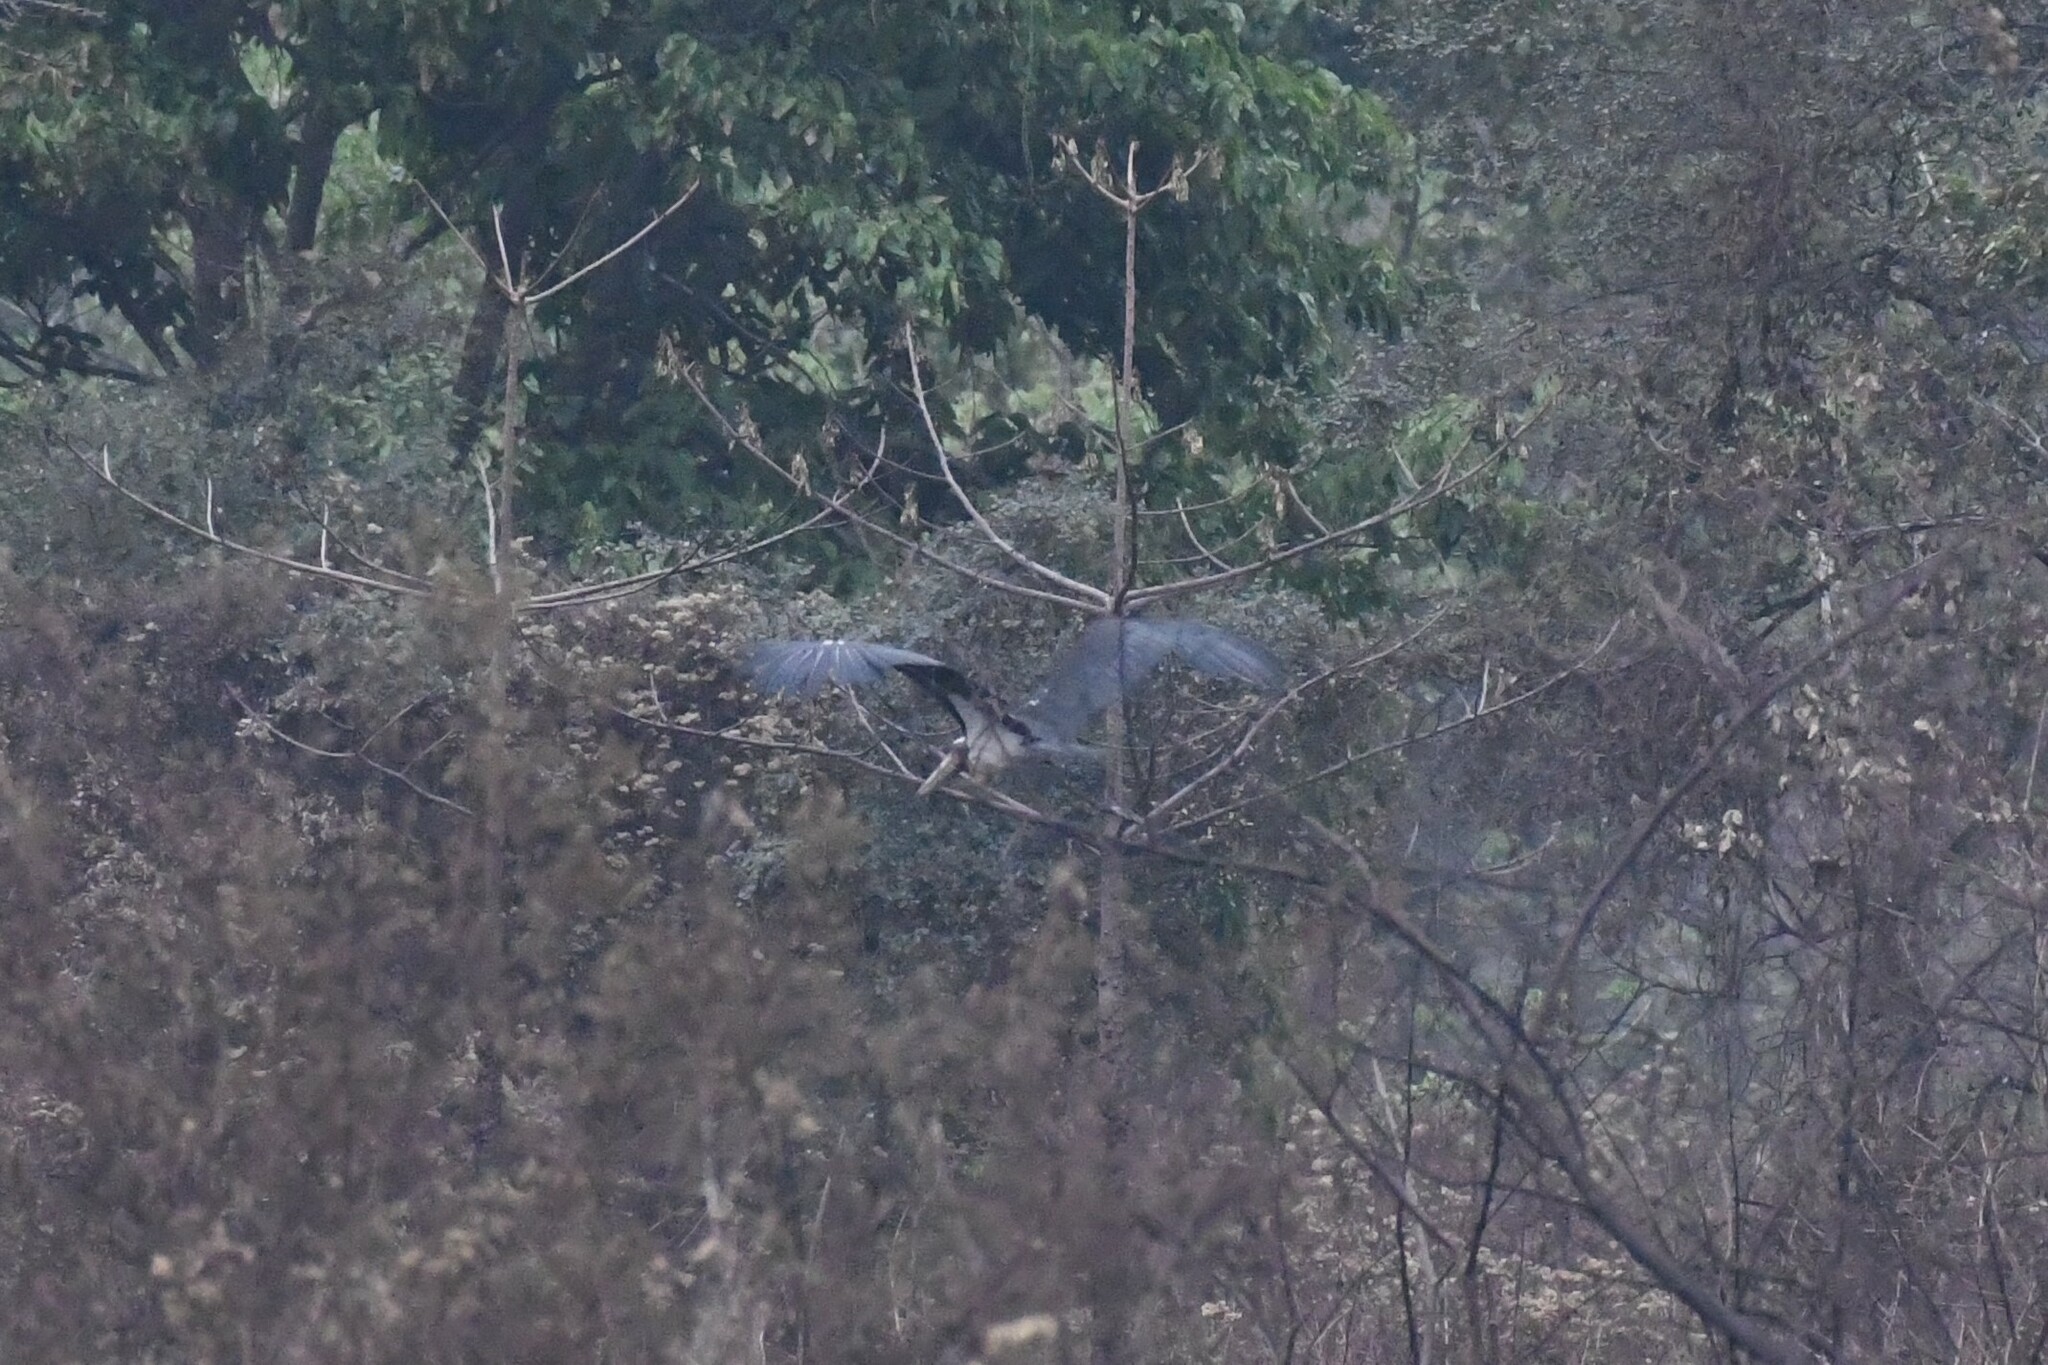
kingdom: Animalia
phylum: Chordata
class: Aves
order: Ciconiiformes
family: Ciconiidae
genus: Leptoptilos
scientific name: Leptoptilos javanicus
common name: Lesser adjutant
